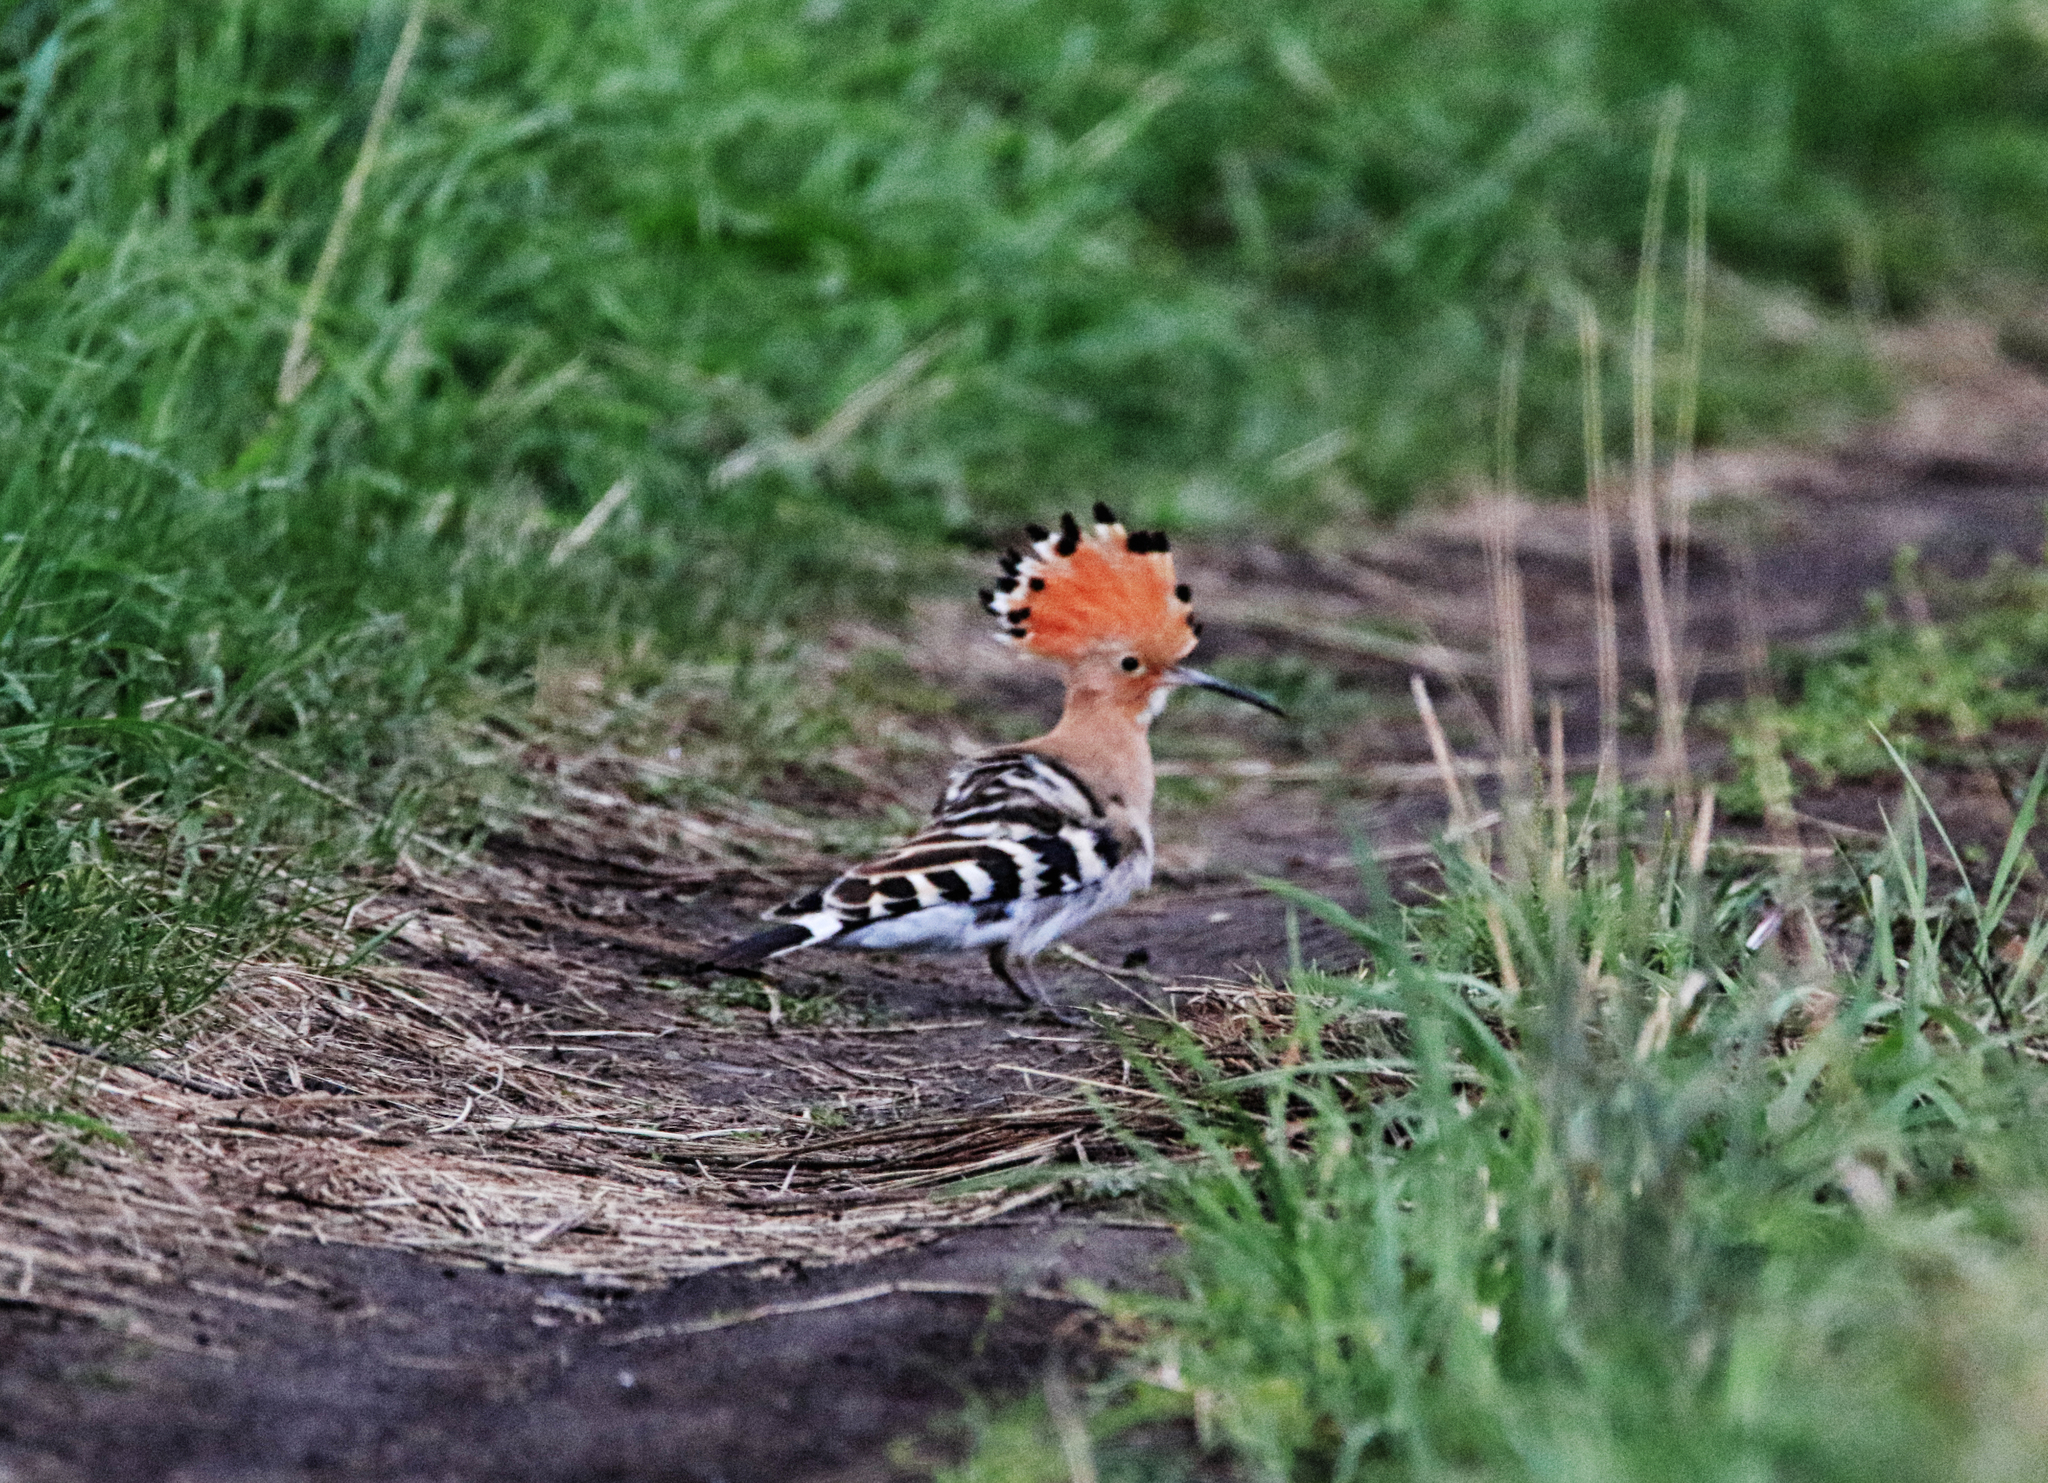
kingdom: Animalia
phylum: Chordata
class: Aves
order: Bucerotiformes
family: Upupidae
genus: Upupa
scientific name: Upupa epops
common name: Eurasian hoopoe
